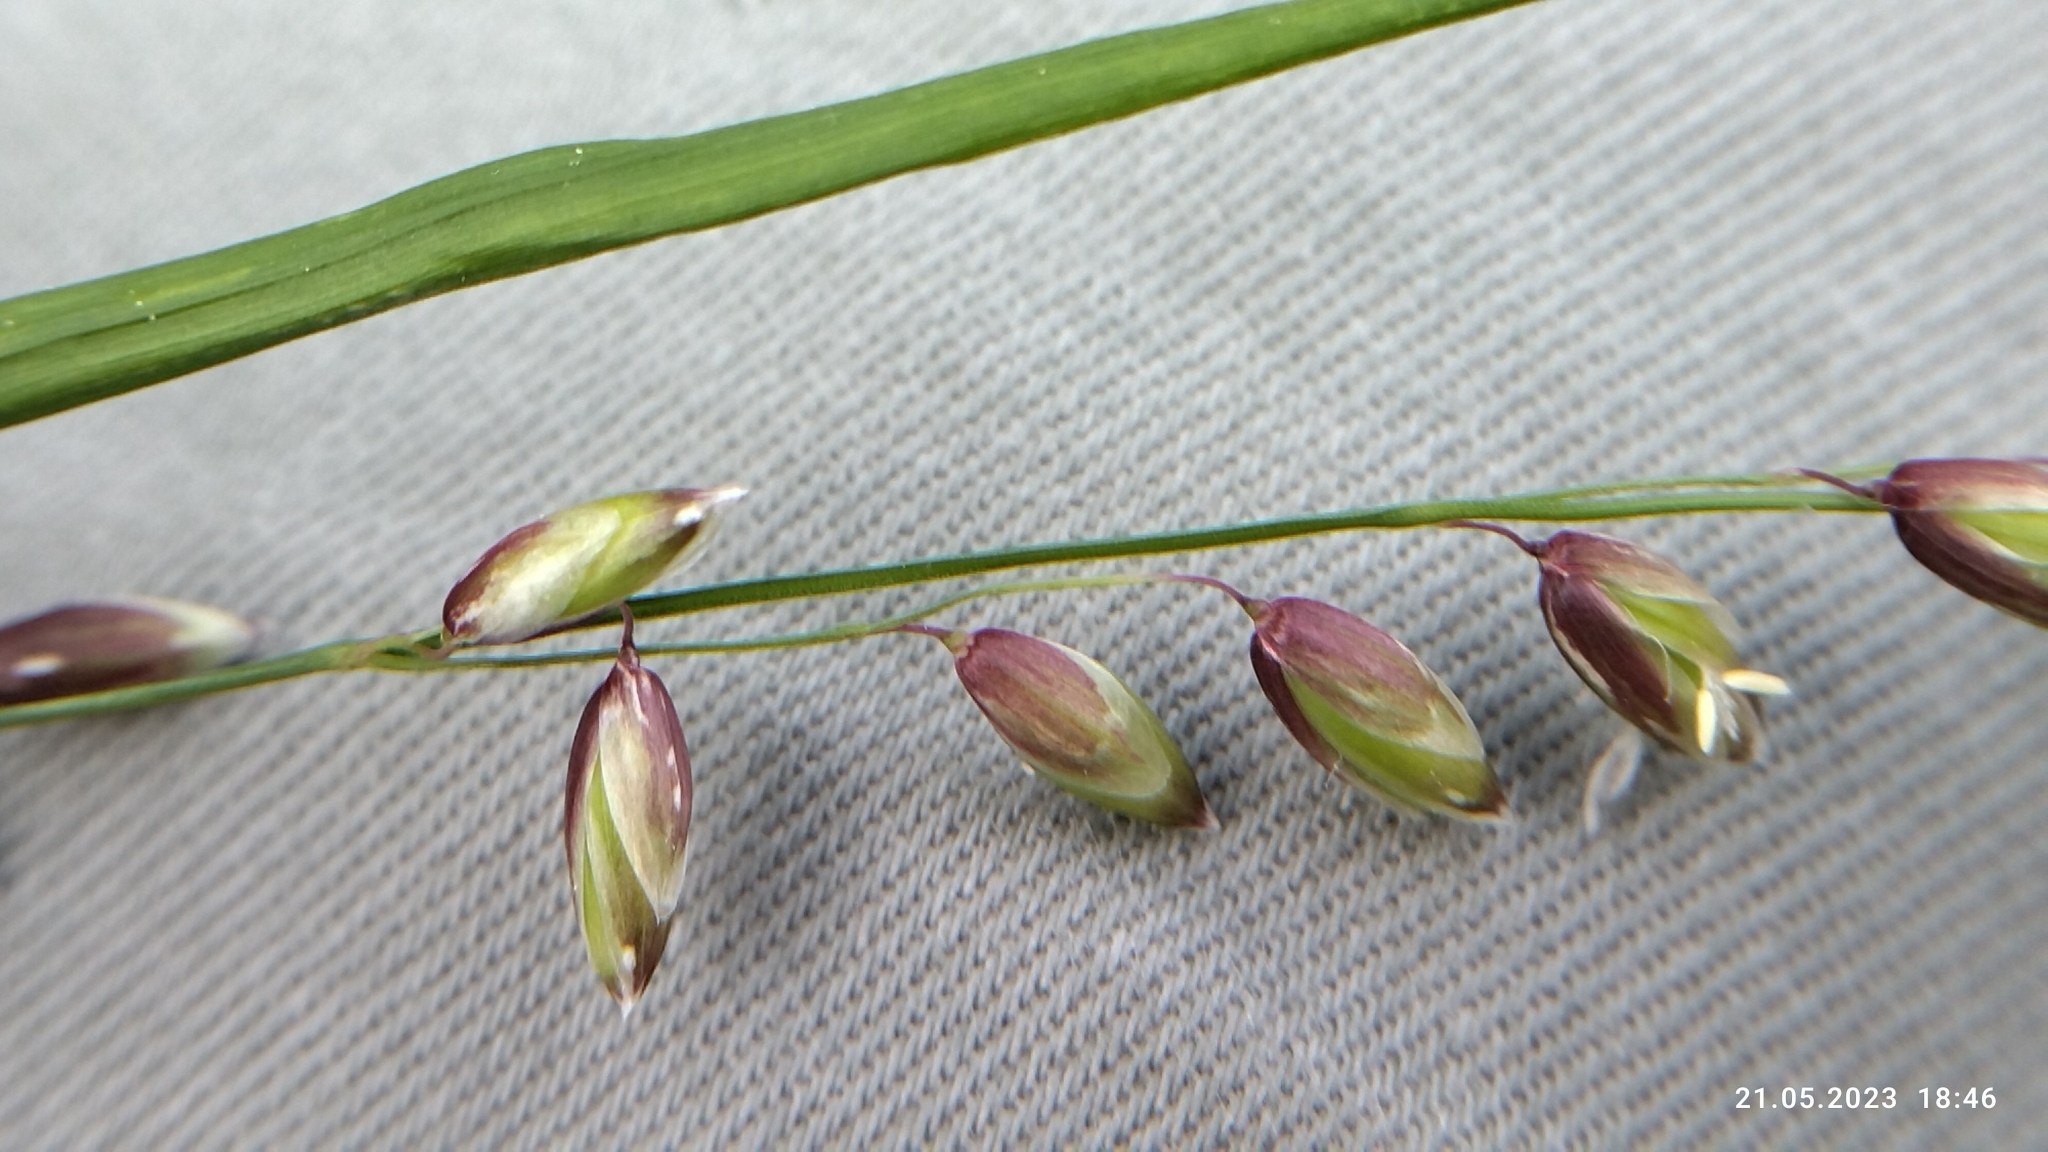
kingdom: Plantae
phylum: Tracheophyta
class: Liliopsida
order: Poales
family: Poaceae
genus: Melica
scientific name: Melica nutans
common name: Mountain melick
